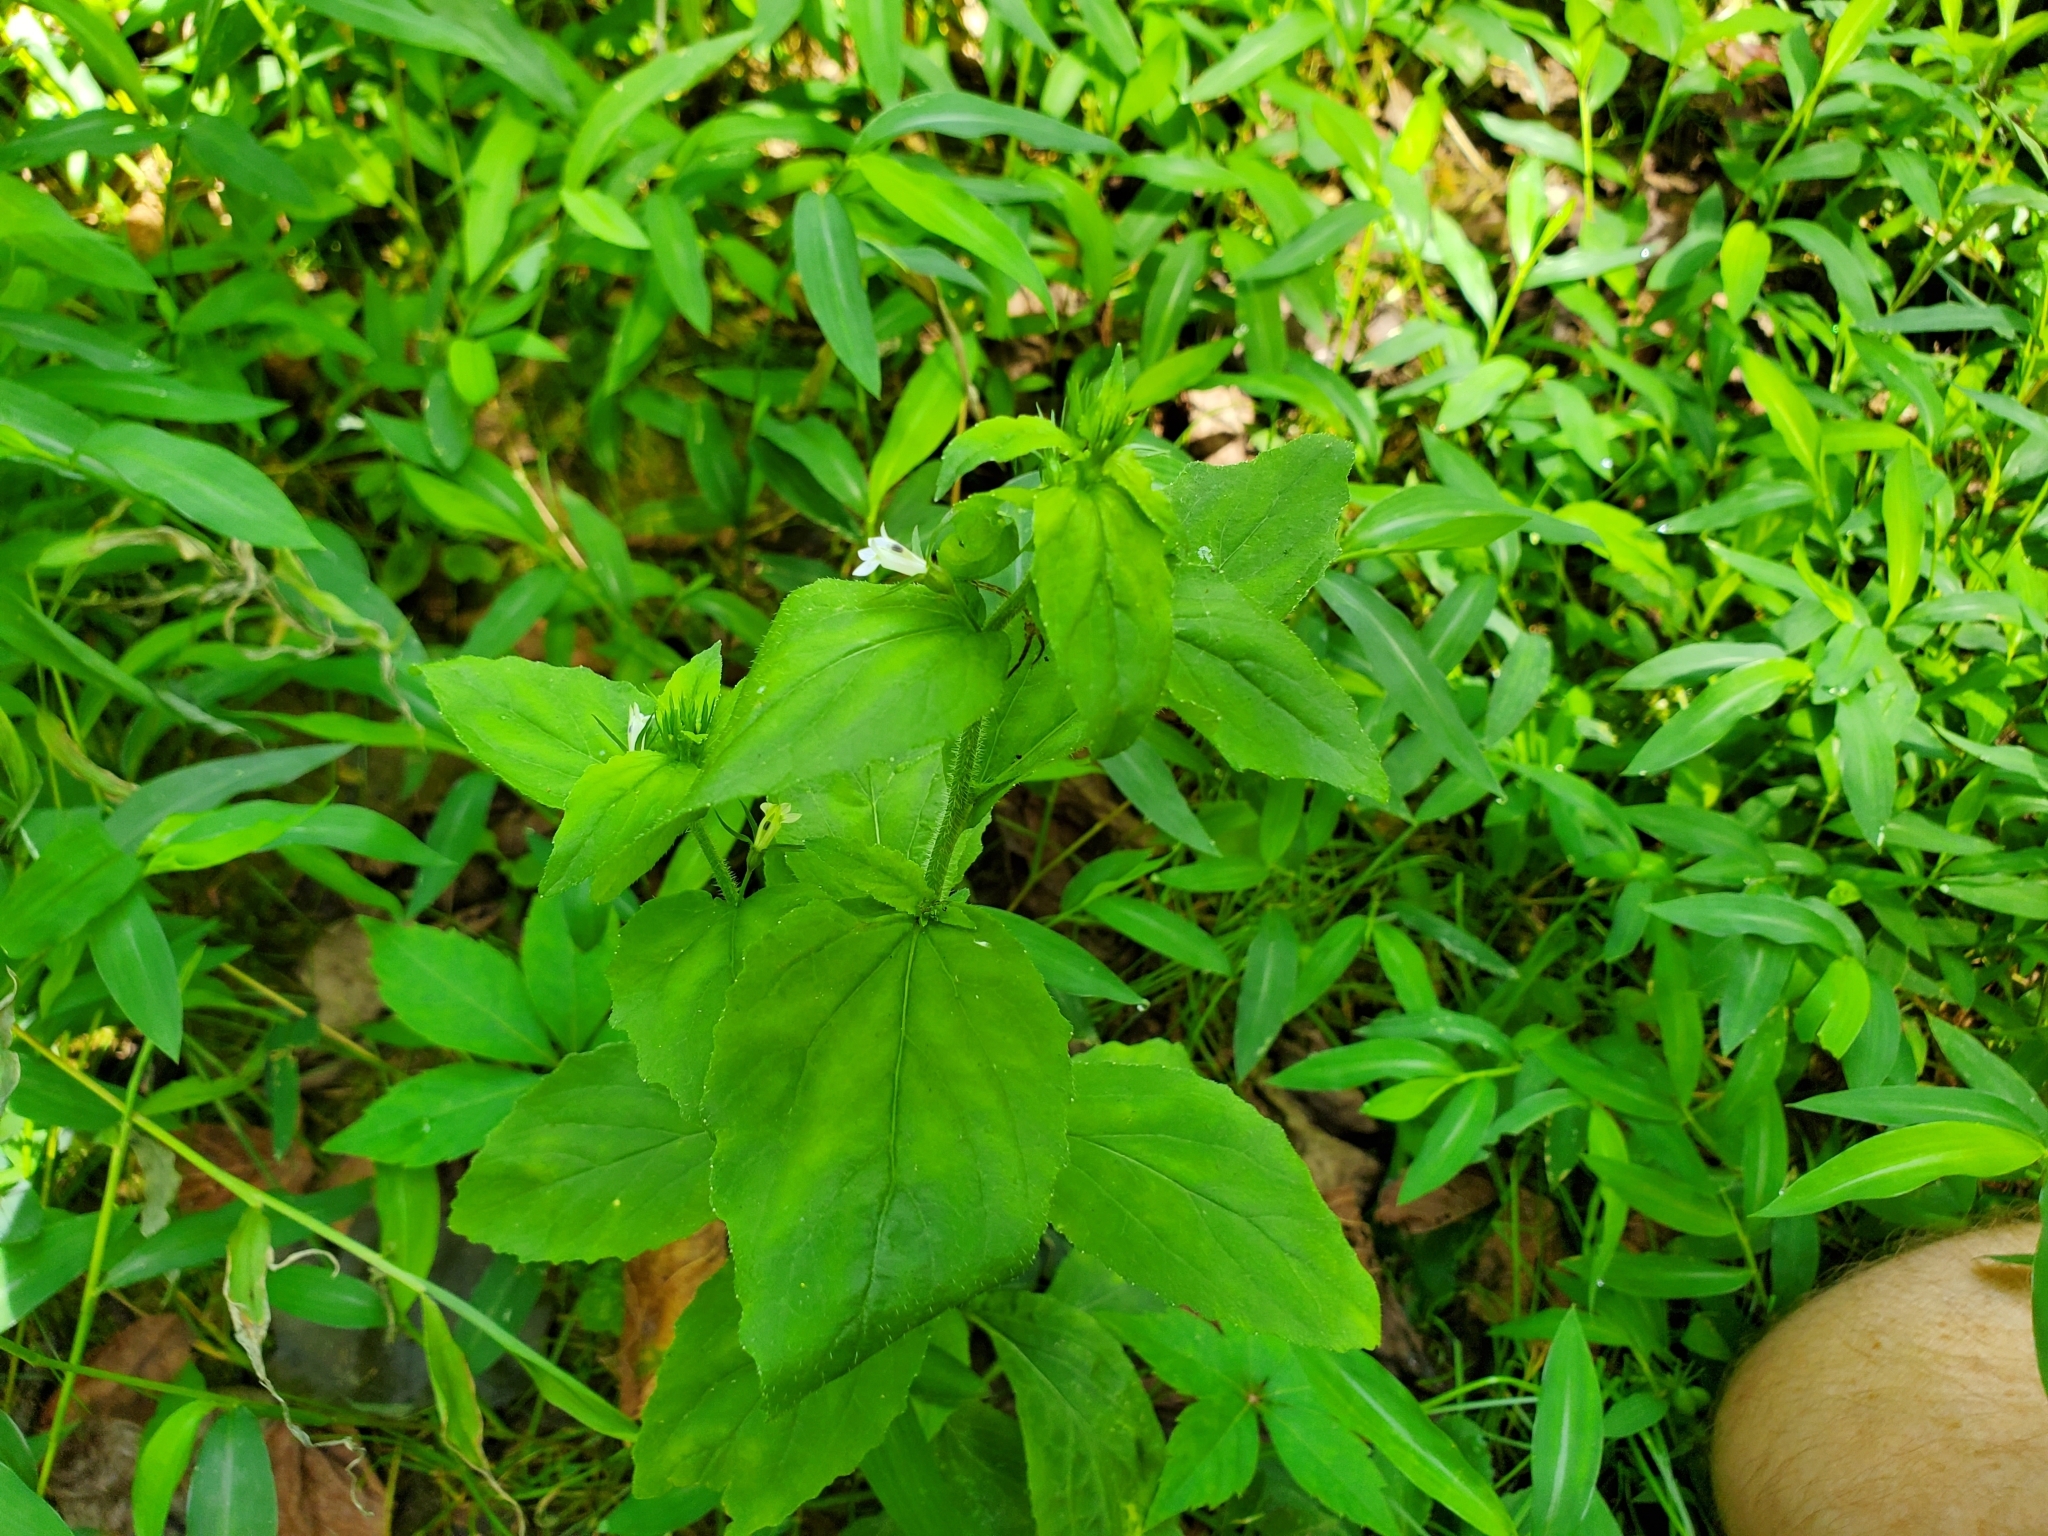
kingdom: Plantae
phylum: Tracheophyta
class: Magnoliopsida
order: Asterales
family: Campanulaceae
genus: Lobelia
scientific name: Lobelia inflata
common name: Indian tobacco
